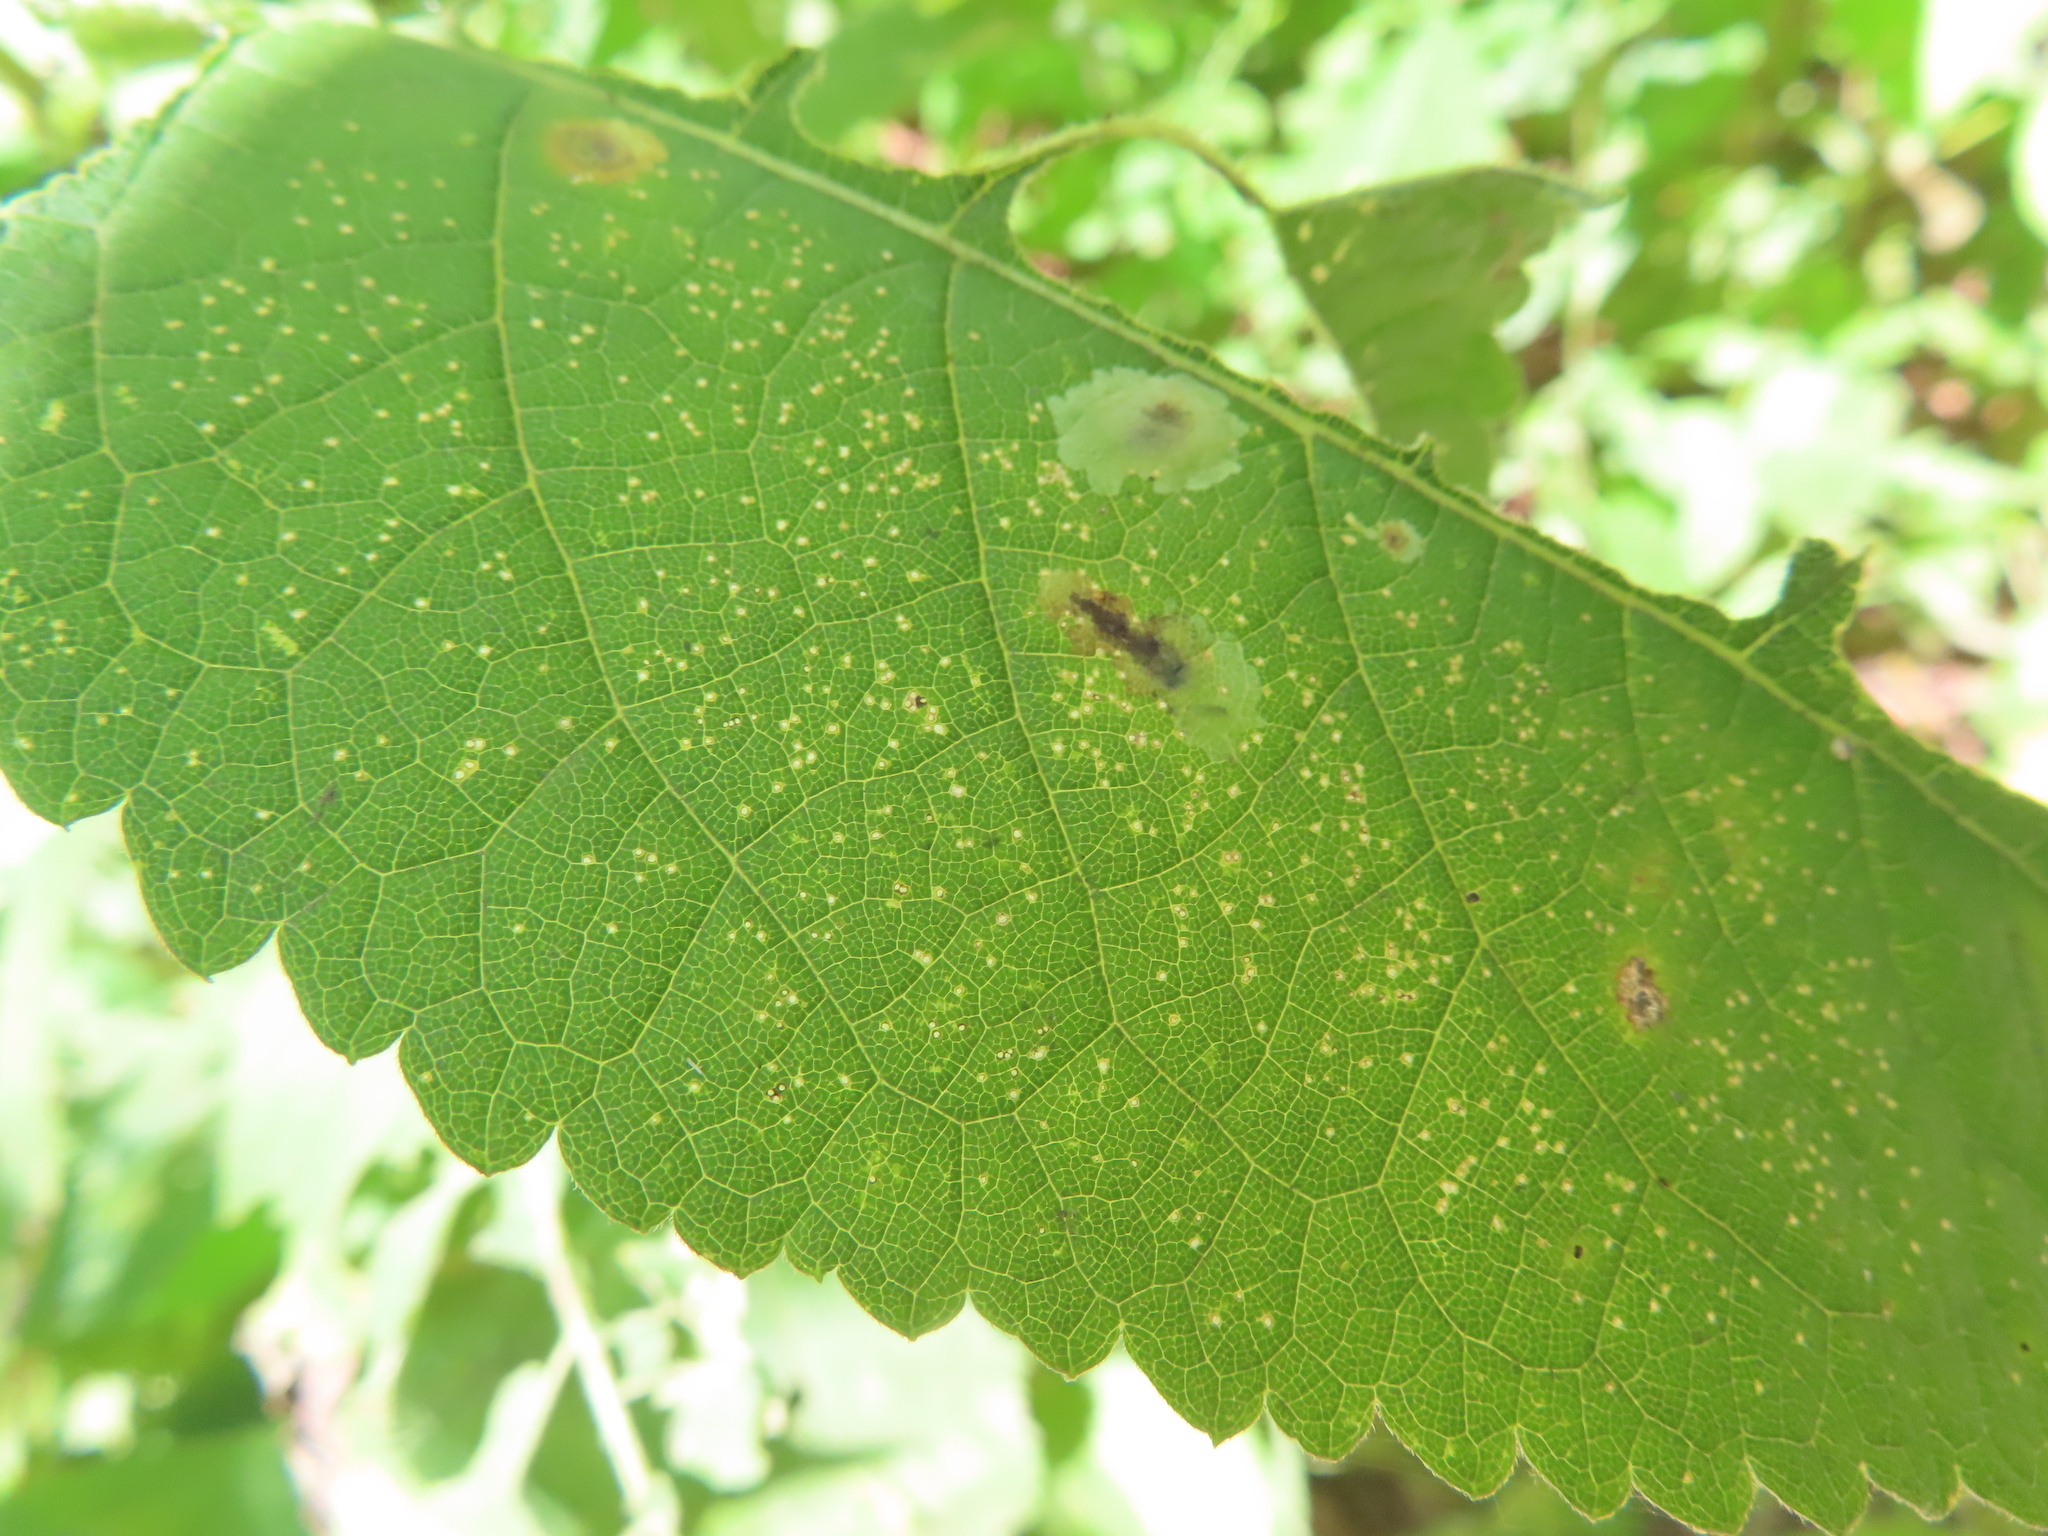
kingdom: Animalia
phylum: Arthropoda
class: Insecta
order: Diptera
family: Agromyzidae
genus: Calycomyza
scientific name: Calycomyza flavinotum
